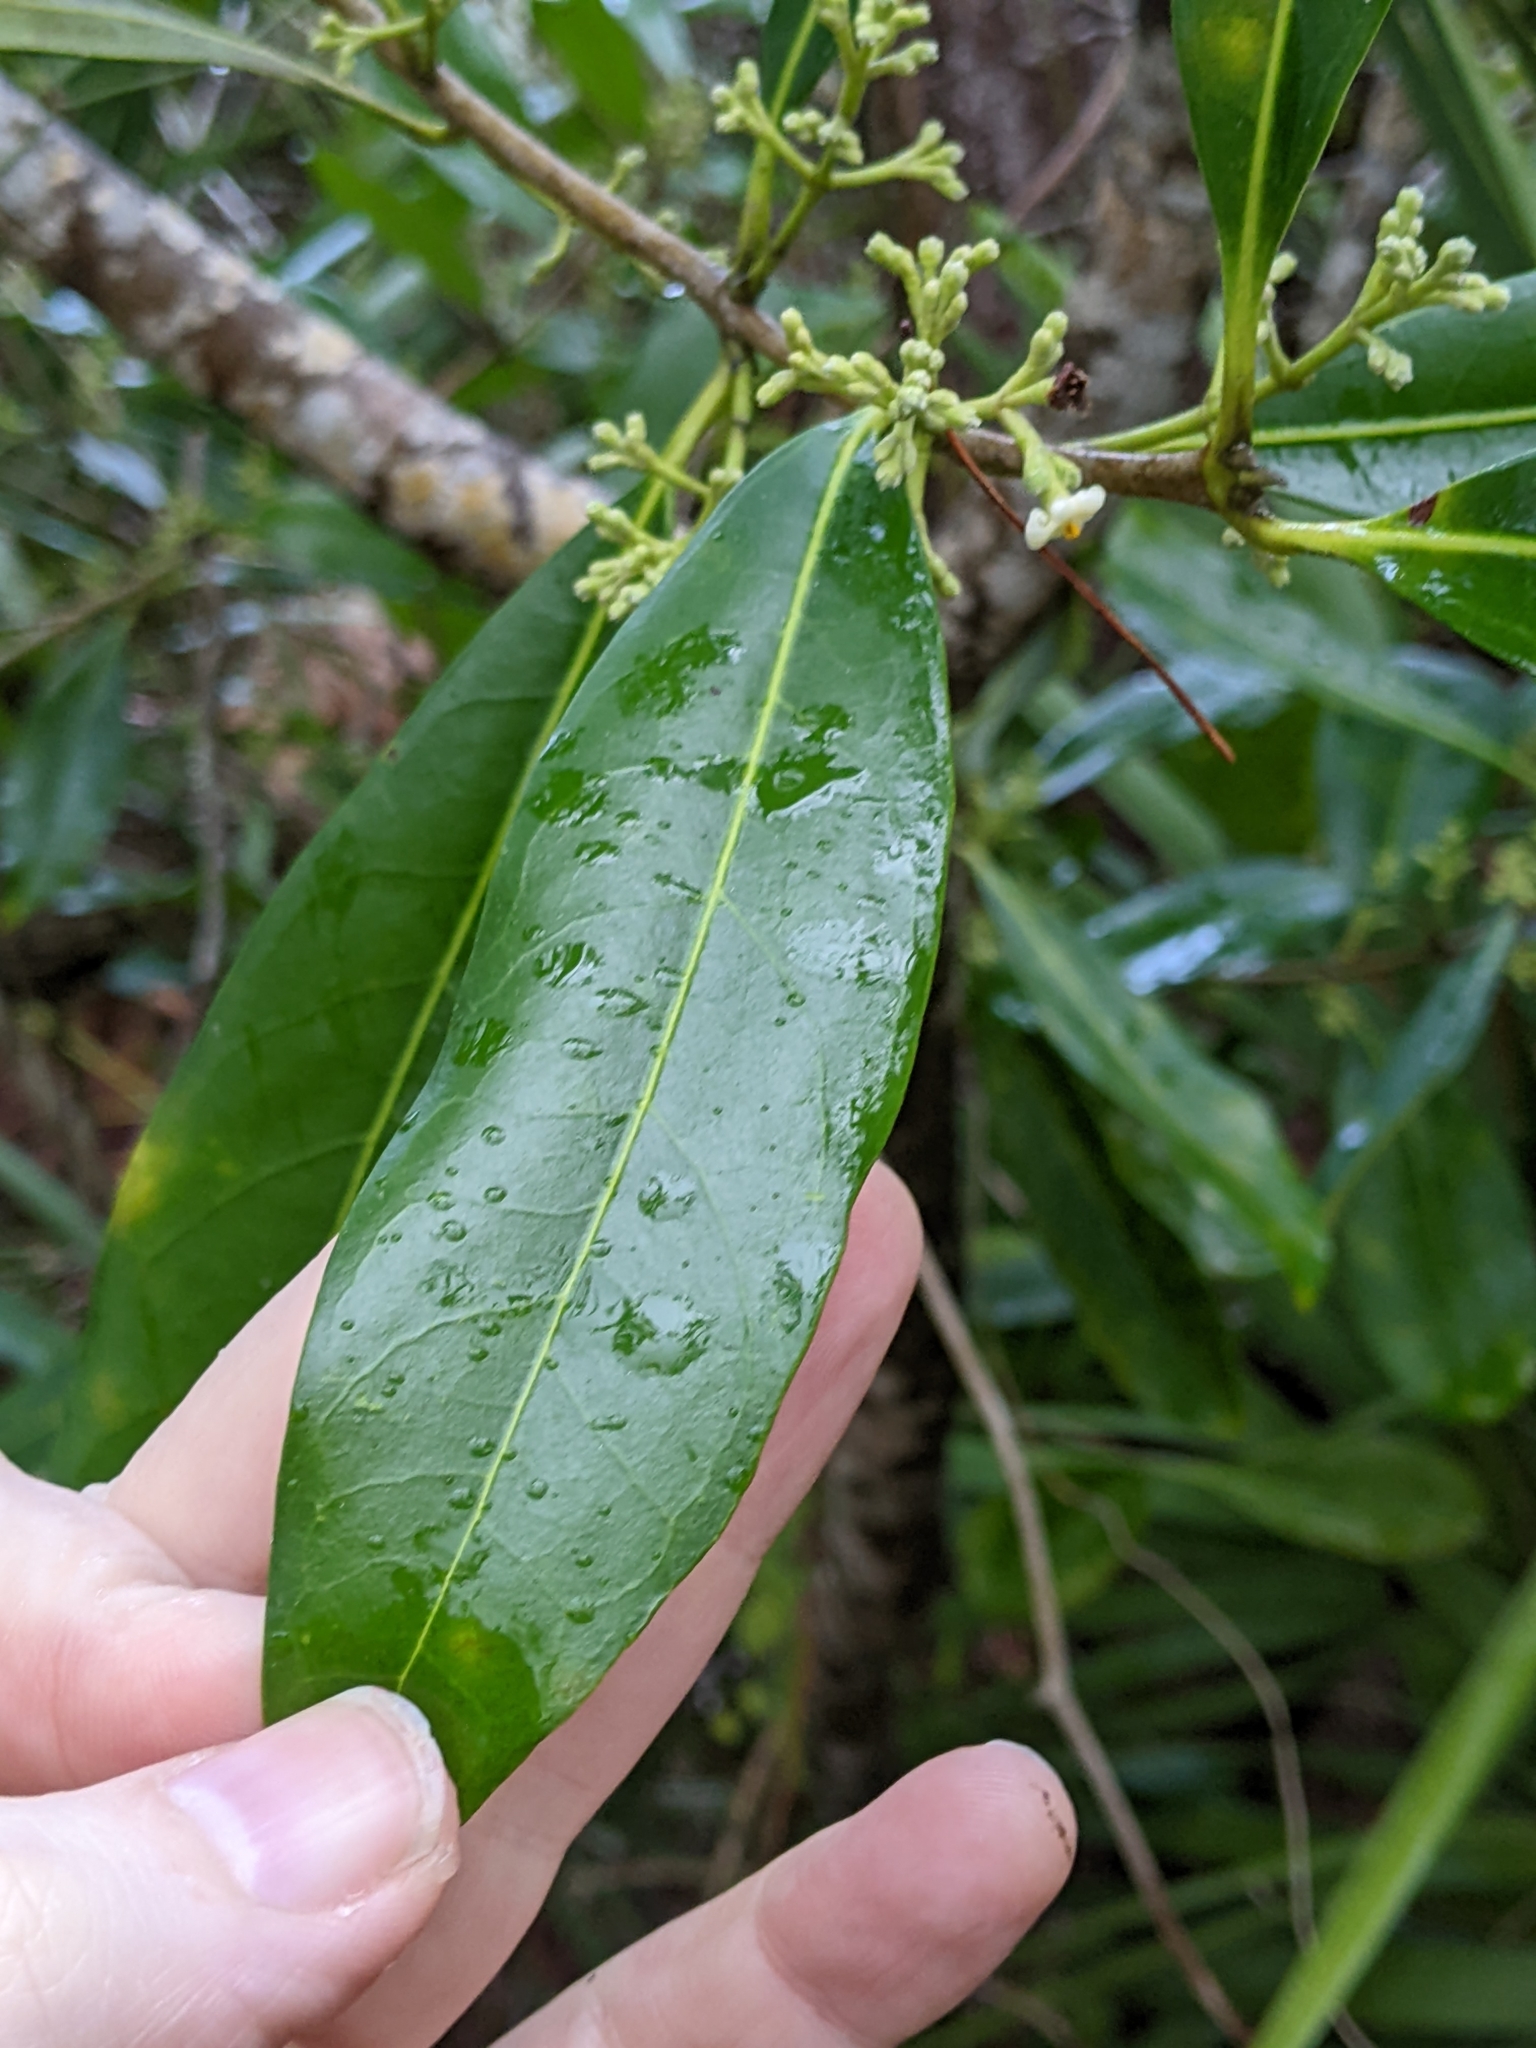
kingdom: Plantae
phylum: Tracheophyta
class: Magnoliopsida
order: Lamiales
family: Oleaceae
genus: Cartrema
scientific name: Cartrema americana
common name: Devilwood
